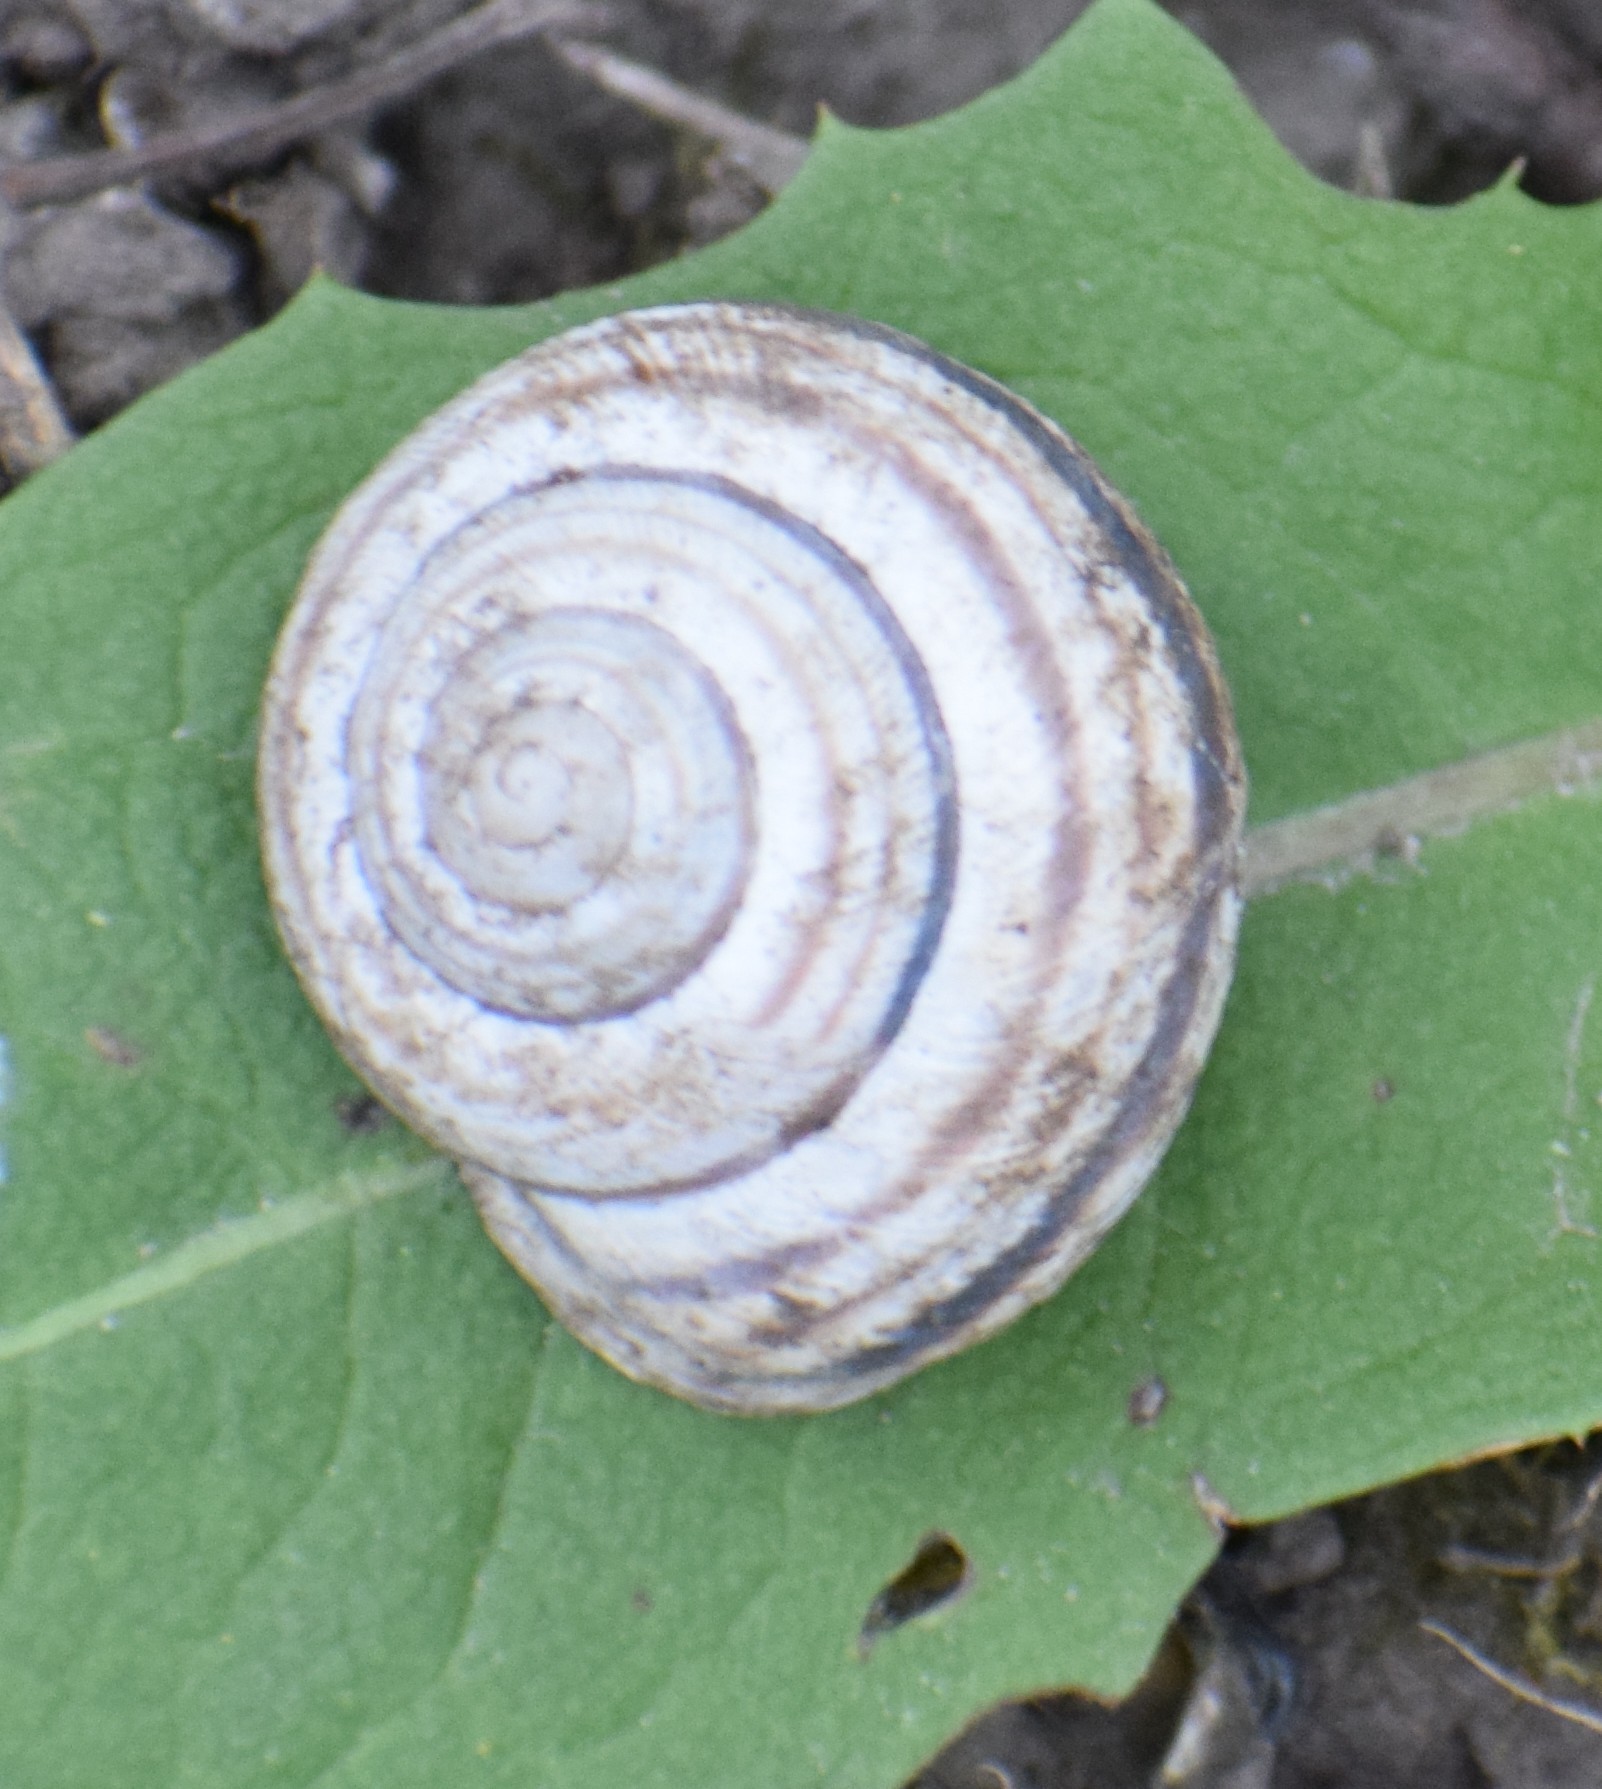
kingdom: Animalia
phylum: Mollusca
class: Gastropoda
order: Stylommatophora
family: Helicidae
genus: Caucasotachea
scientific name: Caucasotachea vindobonensis
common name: European helicid land snail
